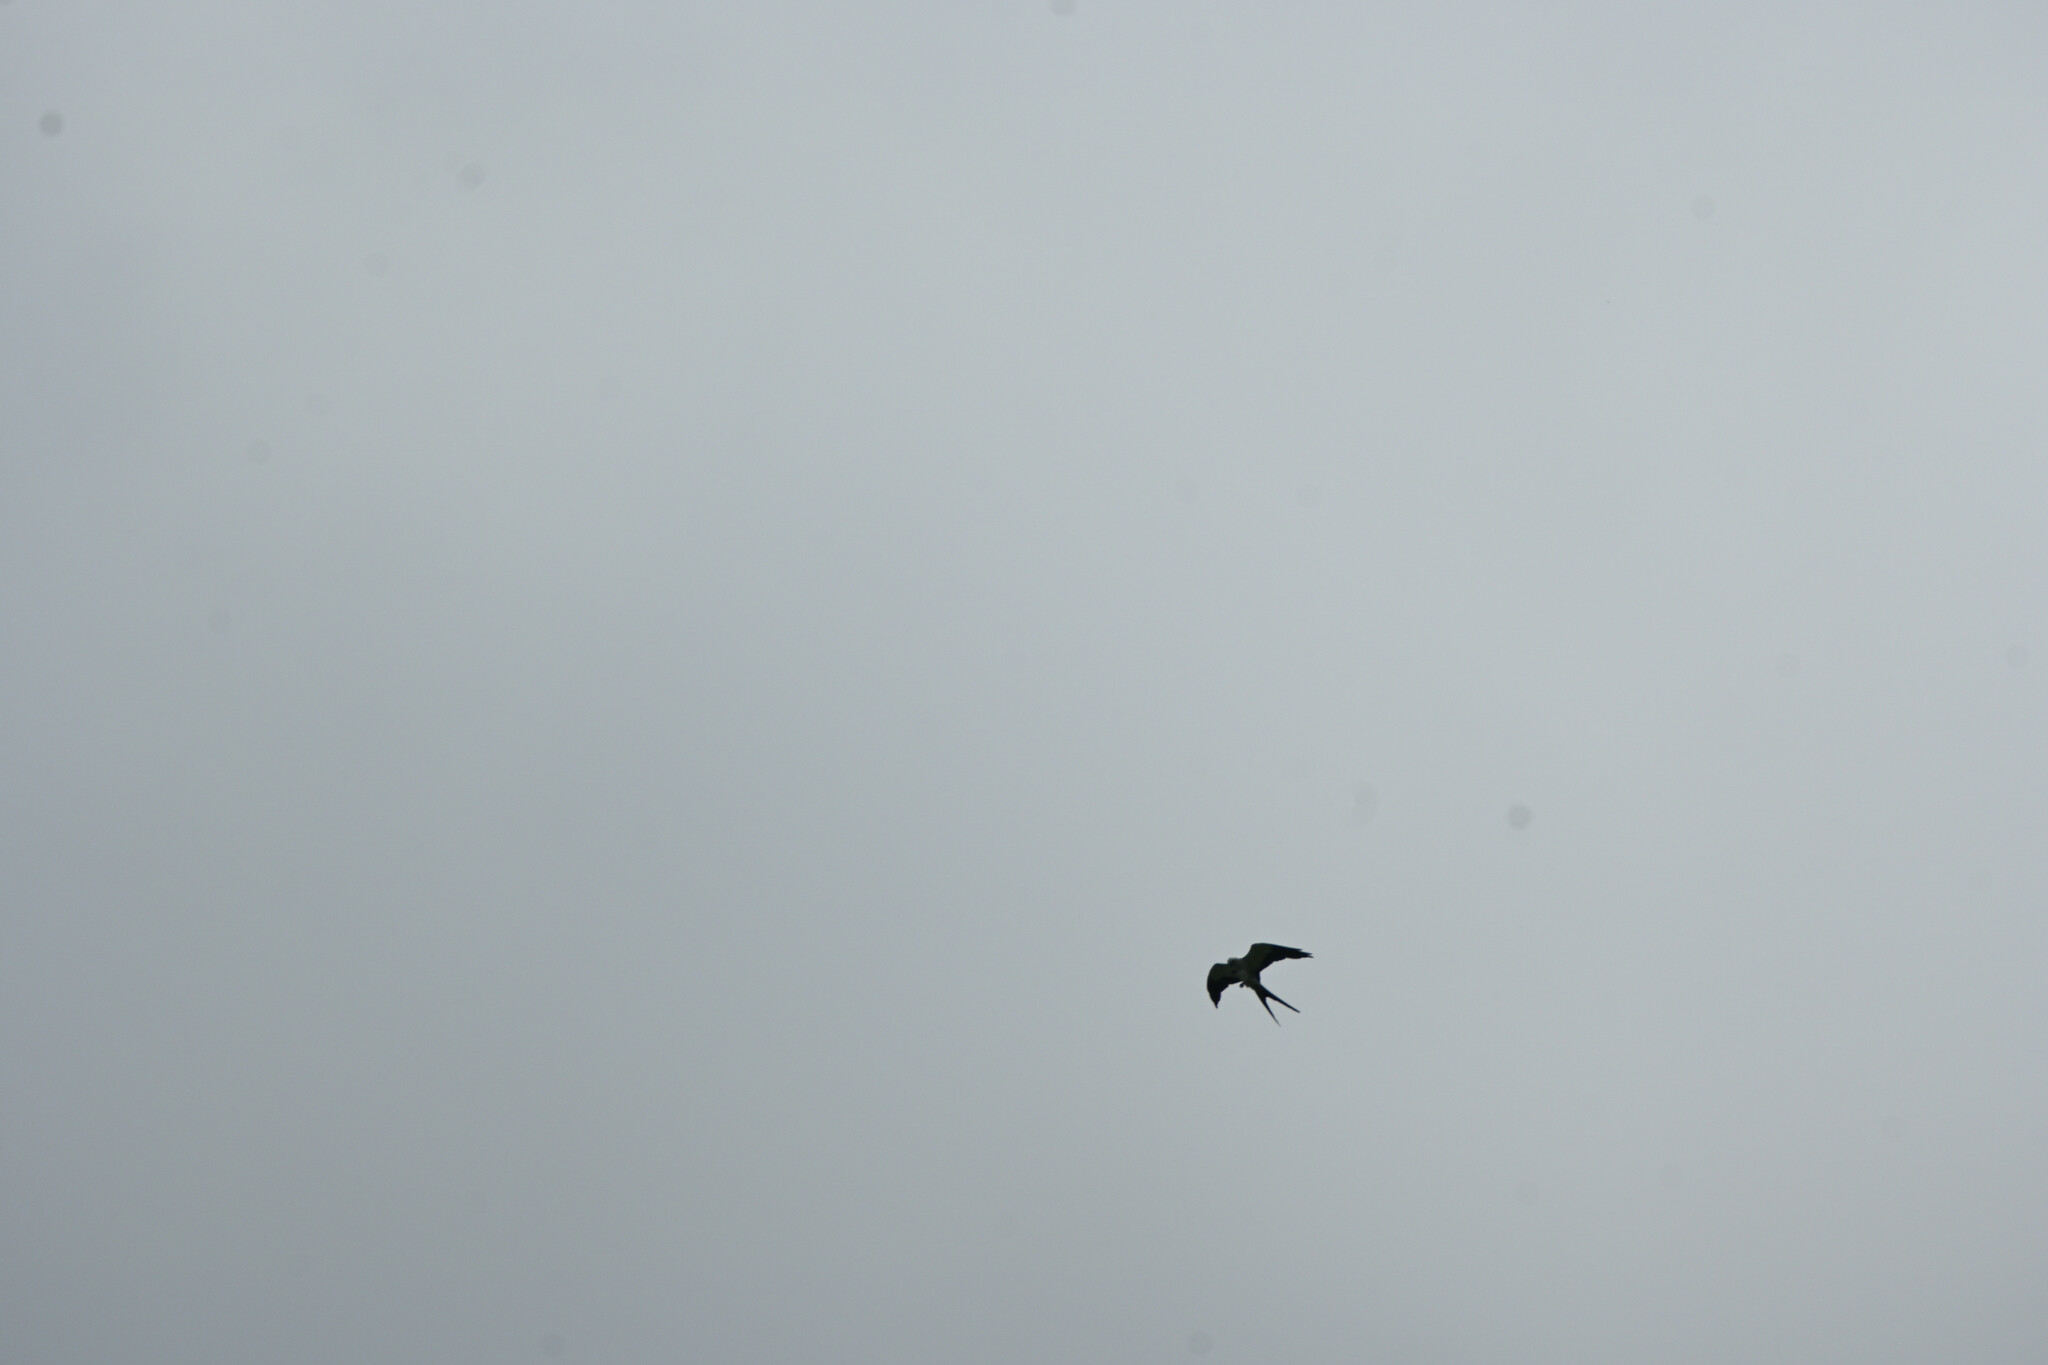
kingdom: Animalia
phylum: Chordata
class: Aves
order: Accipitriformes
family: Accipitridae
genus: Elanoides
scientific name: Elanoides forficatus
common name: Swallow-tailed kite
